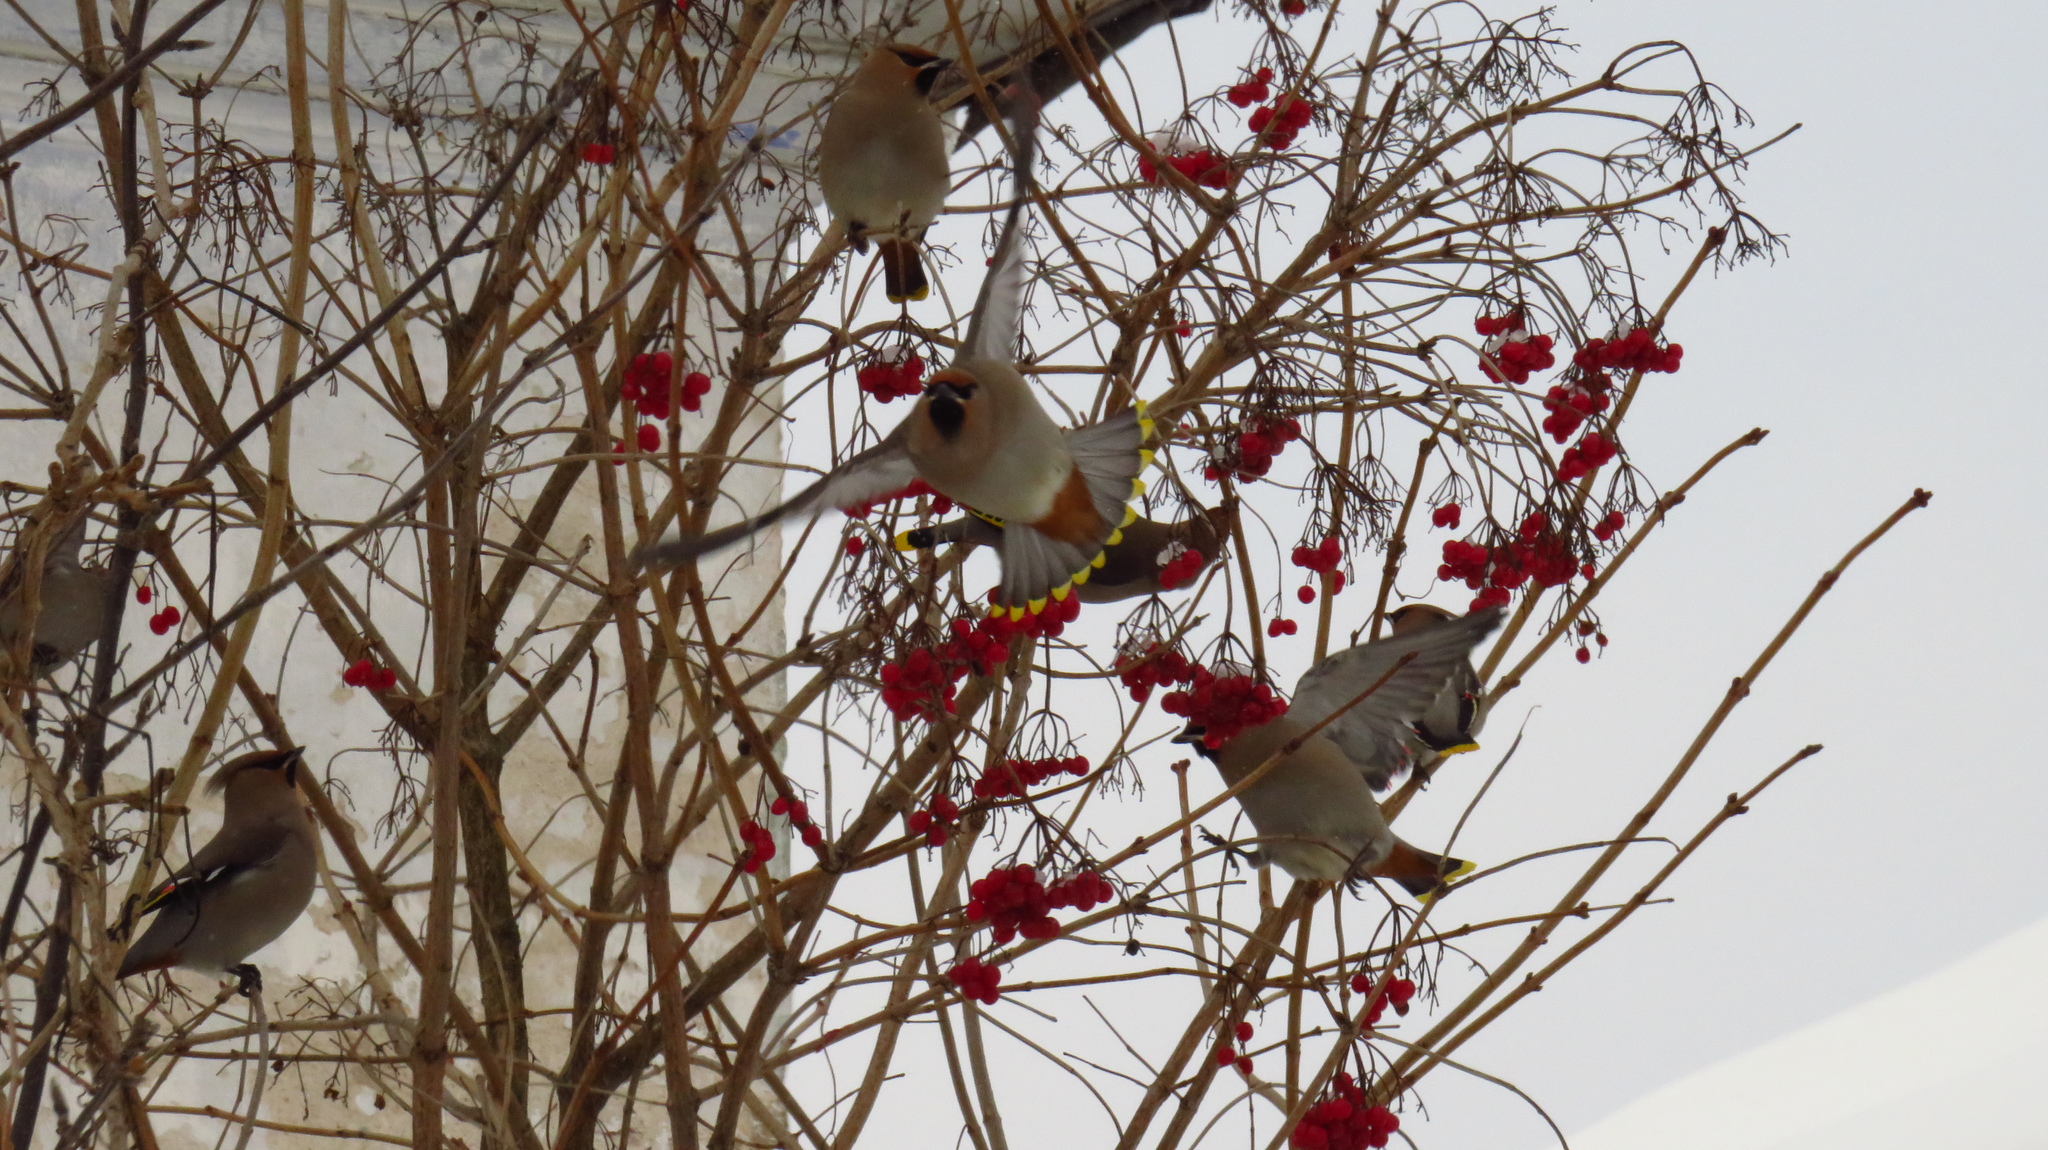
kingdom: Animalia
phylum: Chordata
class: Aves
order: Passeriformes
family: Bombycillidae
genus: Bombycilla
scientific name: Bombycilla garrulus
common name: Bohemian waxwing
